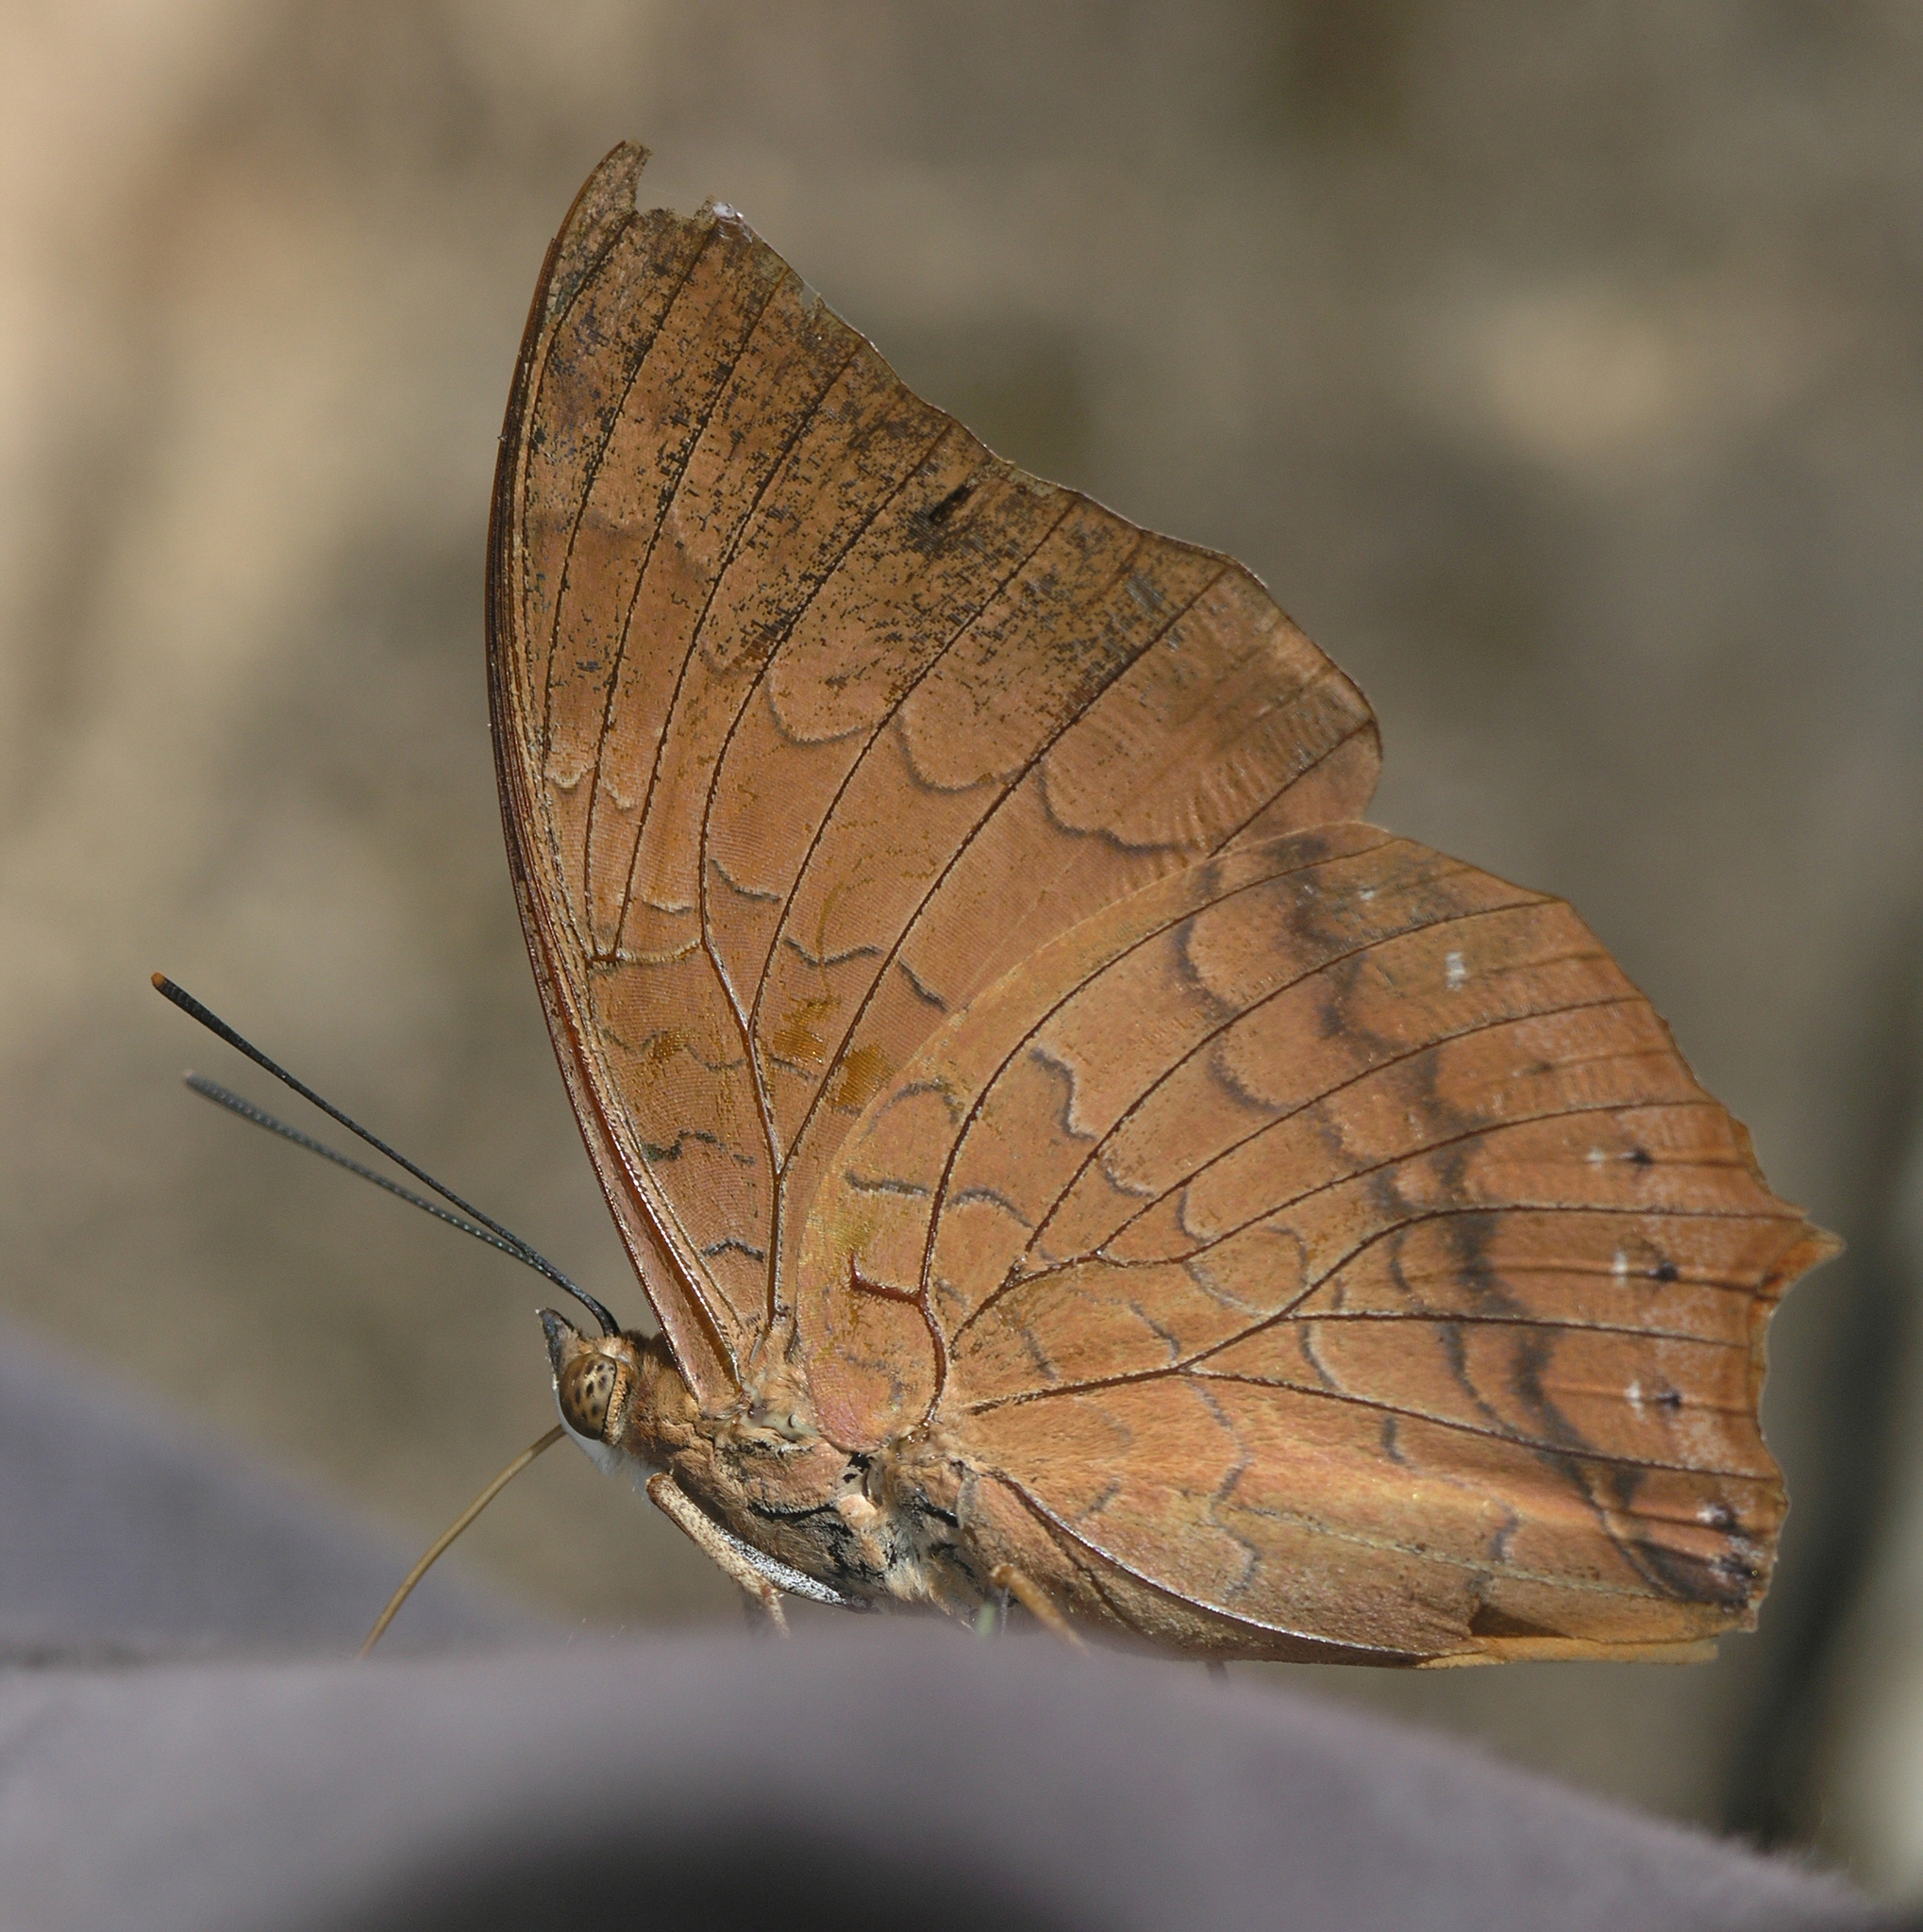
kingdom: Animalia
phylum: Arthropoda
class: Insecta
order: Lepidoptera
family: Nymphalidae
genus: Charaxes
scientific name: Charaxes bernardus
